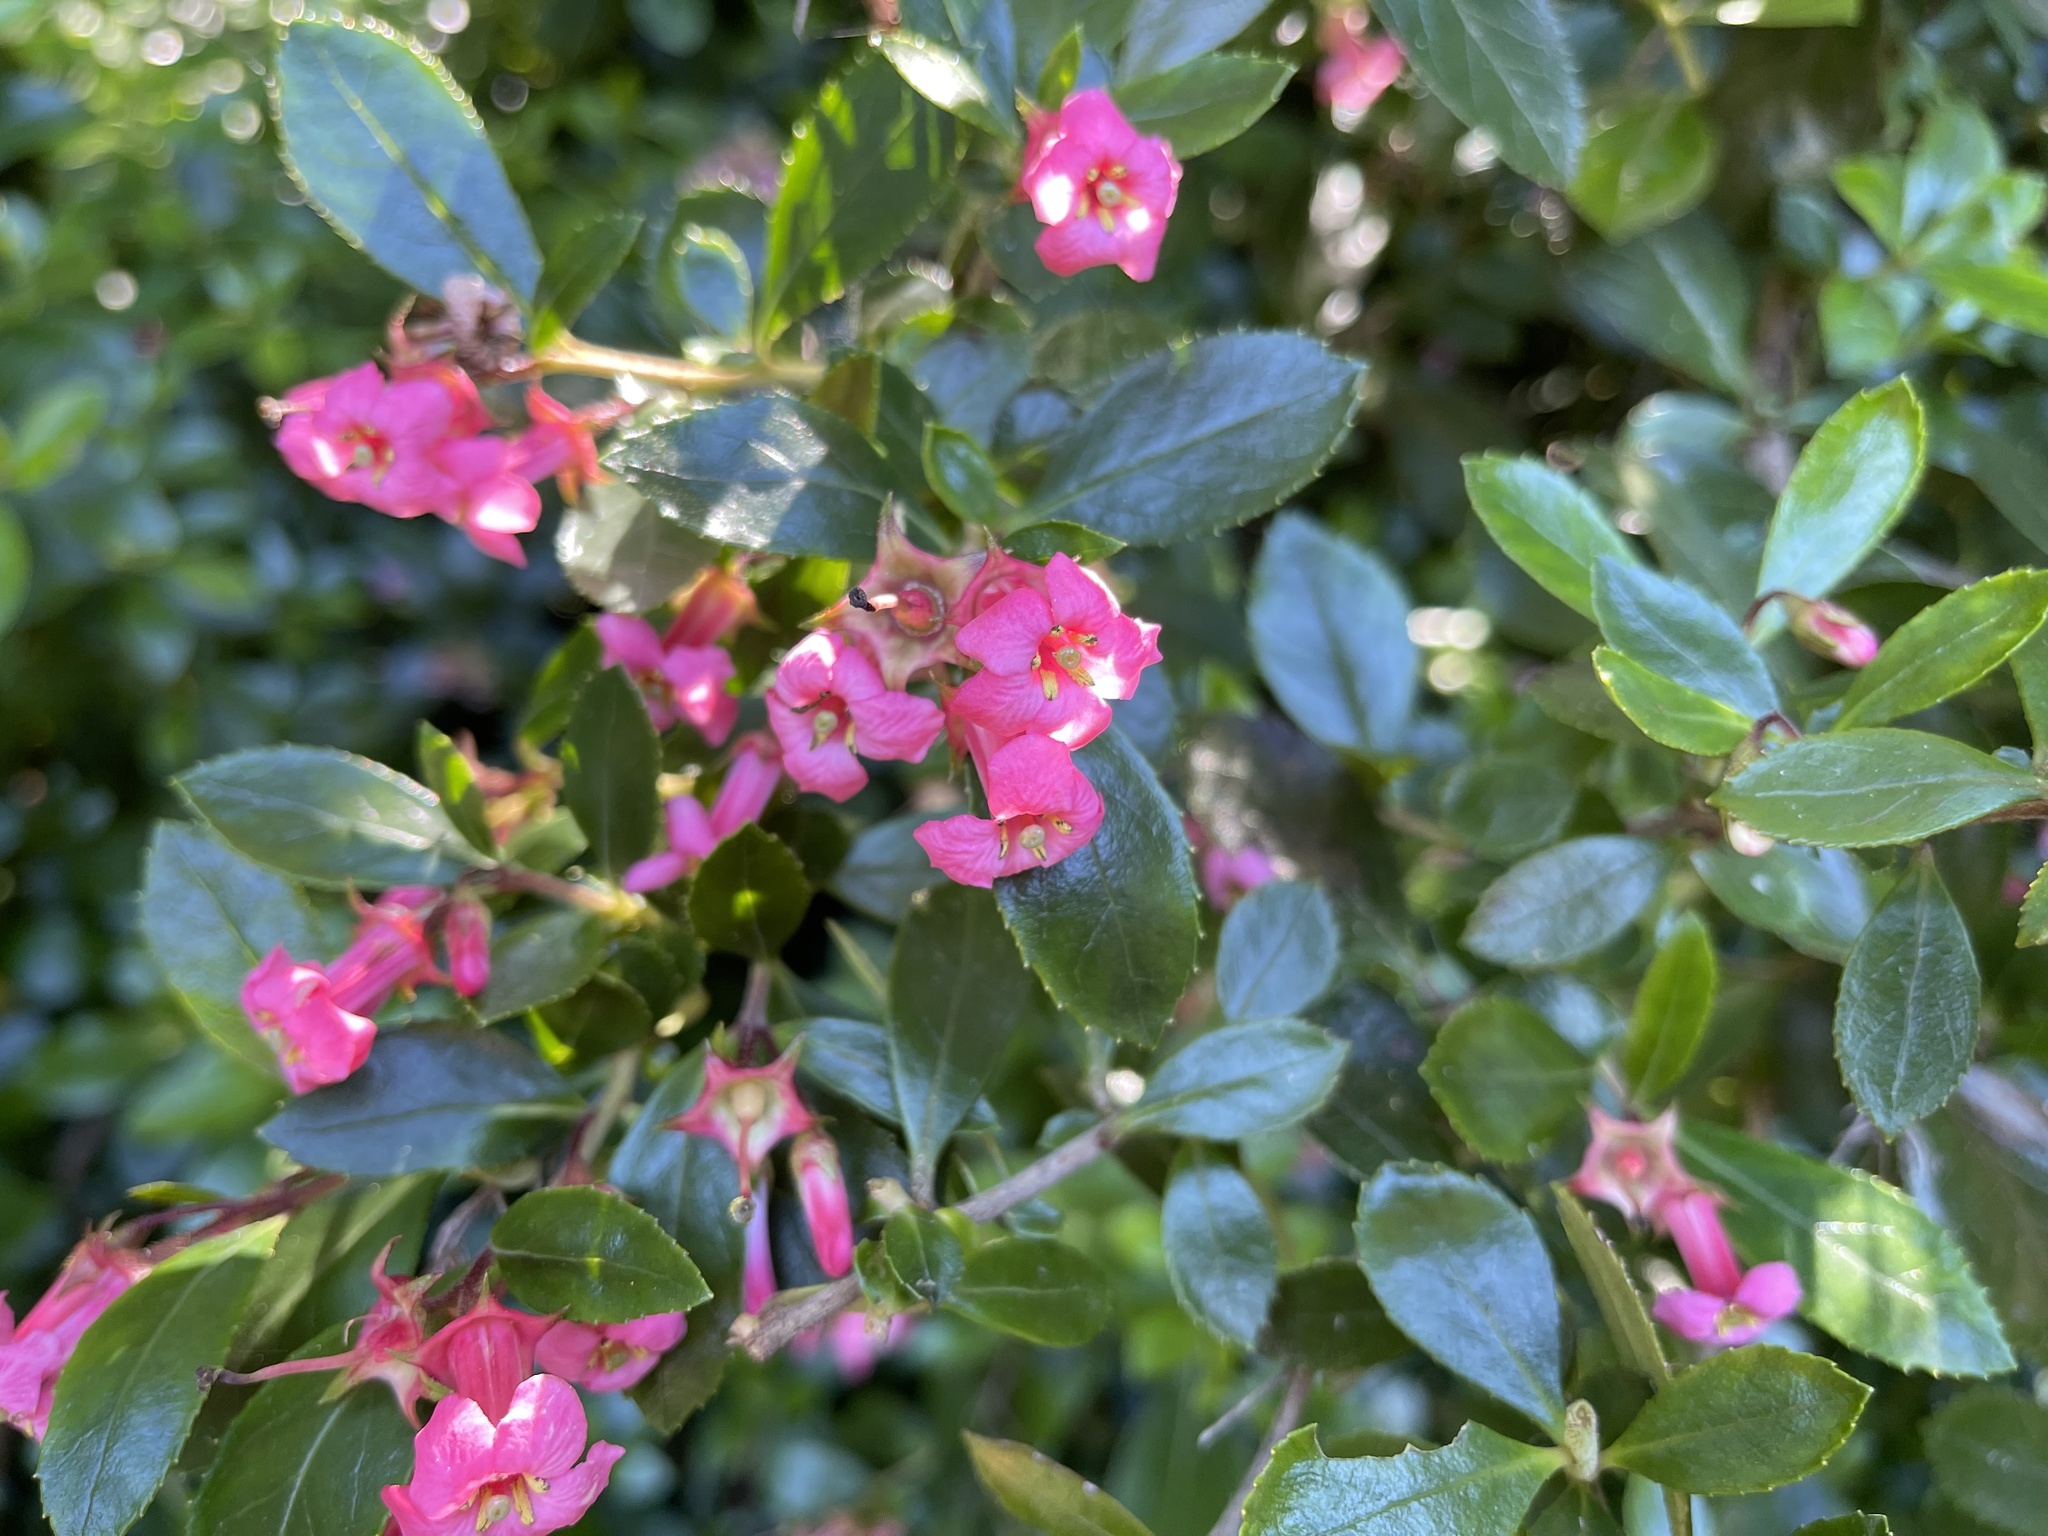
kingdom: Plantae
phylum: Tracheophyta
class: Magnoliopsida
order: Escalloniales
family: Escalloniaceae
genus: Escallonia
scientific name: Escallonia rubra
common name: Redclaws
